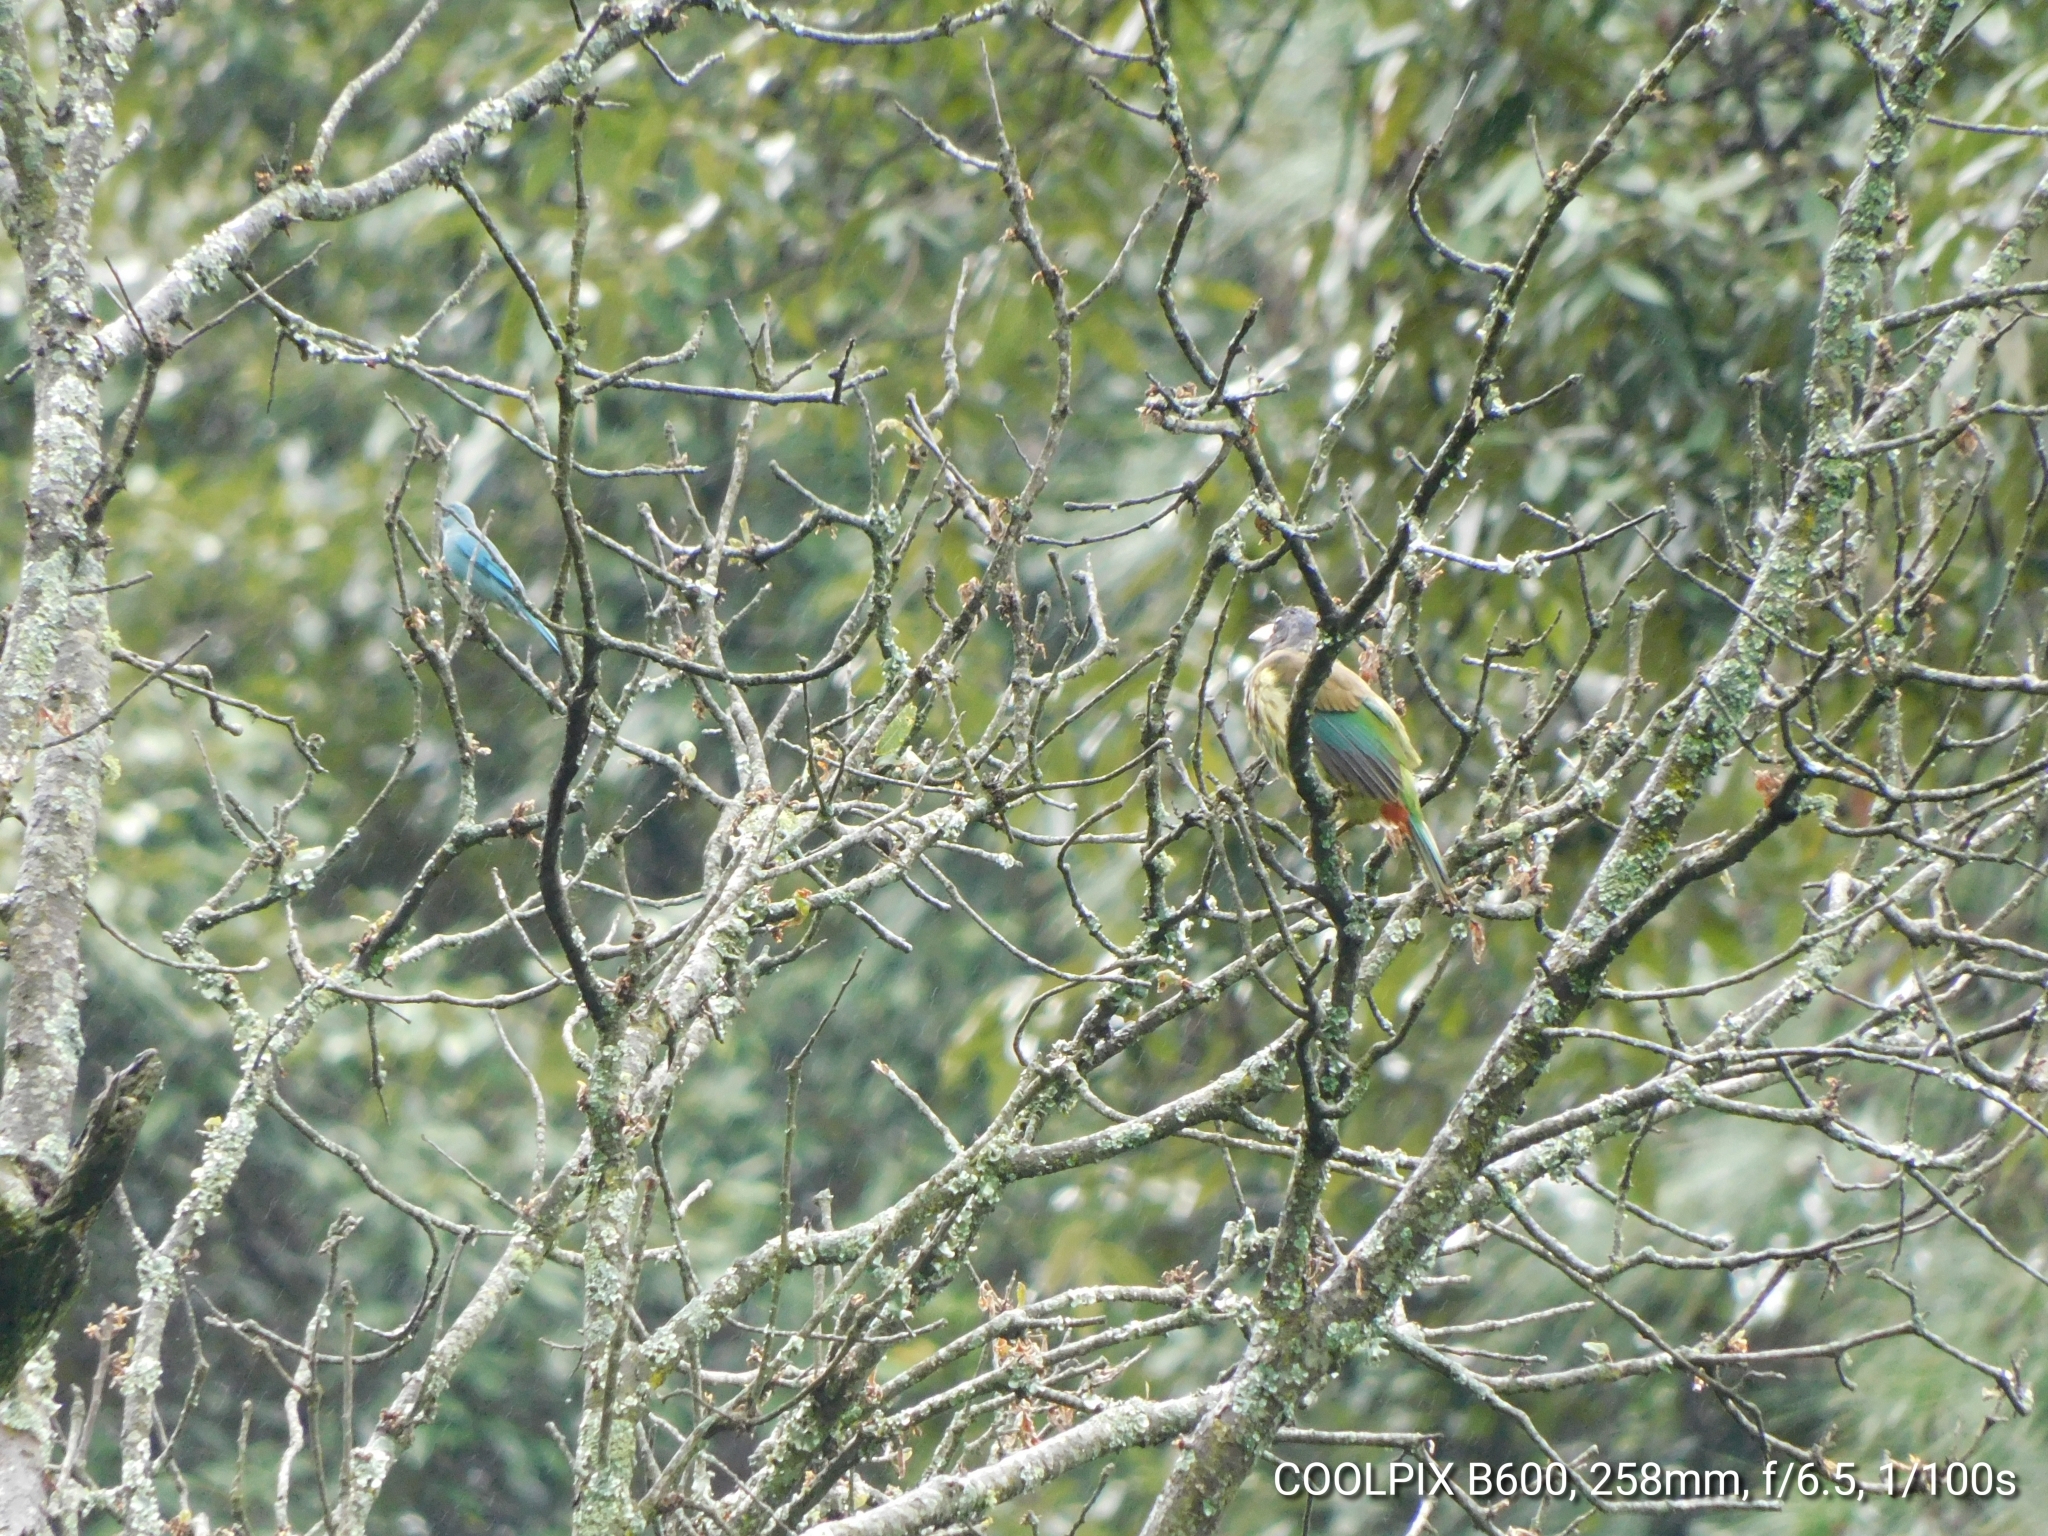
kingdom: Animalia
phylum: Chordata
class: Aves
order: Piciformes
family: Megalaimidae
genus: Psilopogon
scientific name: Psilopogon virens
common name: Great barbet
